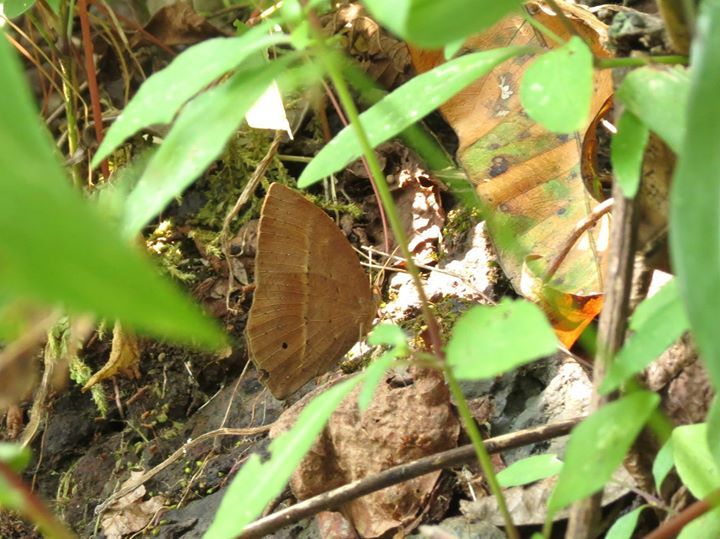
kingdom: Animalia
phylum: Arthropoda
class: Insecta
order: Lepidoptera
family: Nymphalidae
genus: Mycalesis
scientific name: Mycalesis visala
